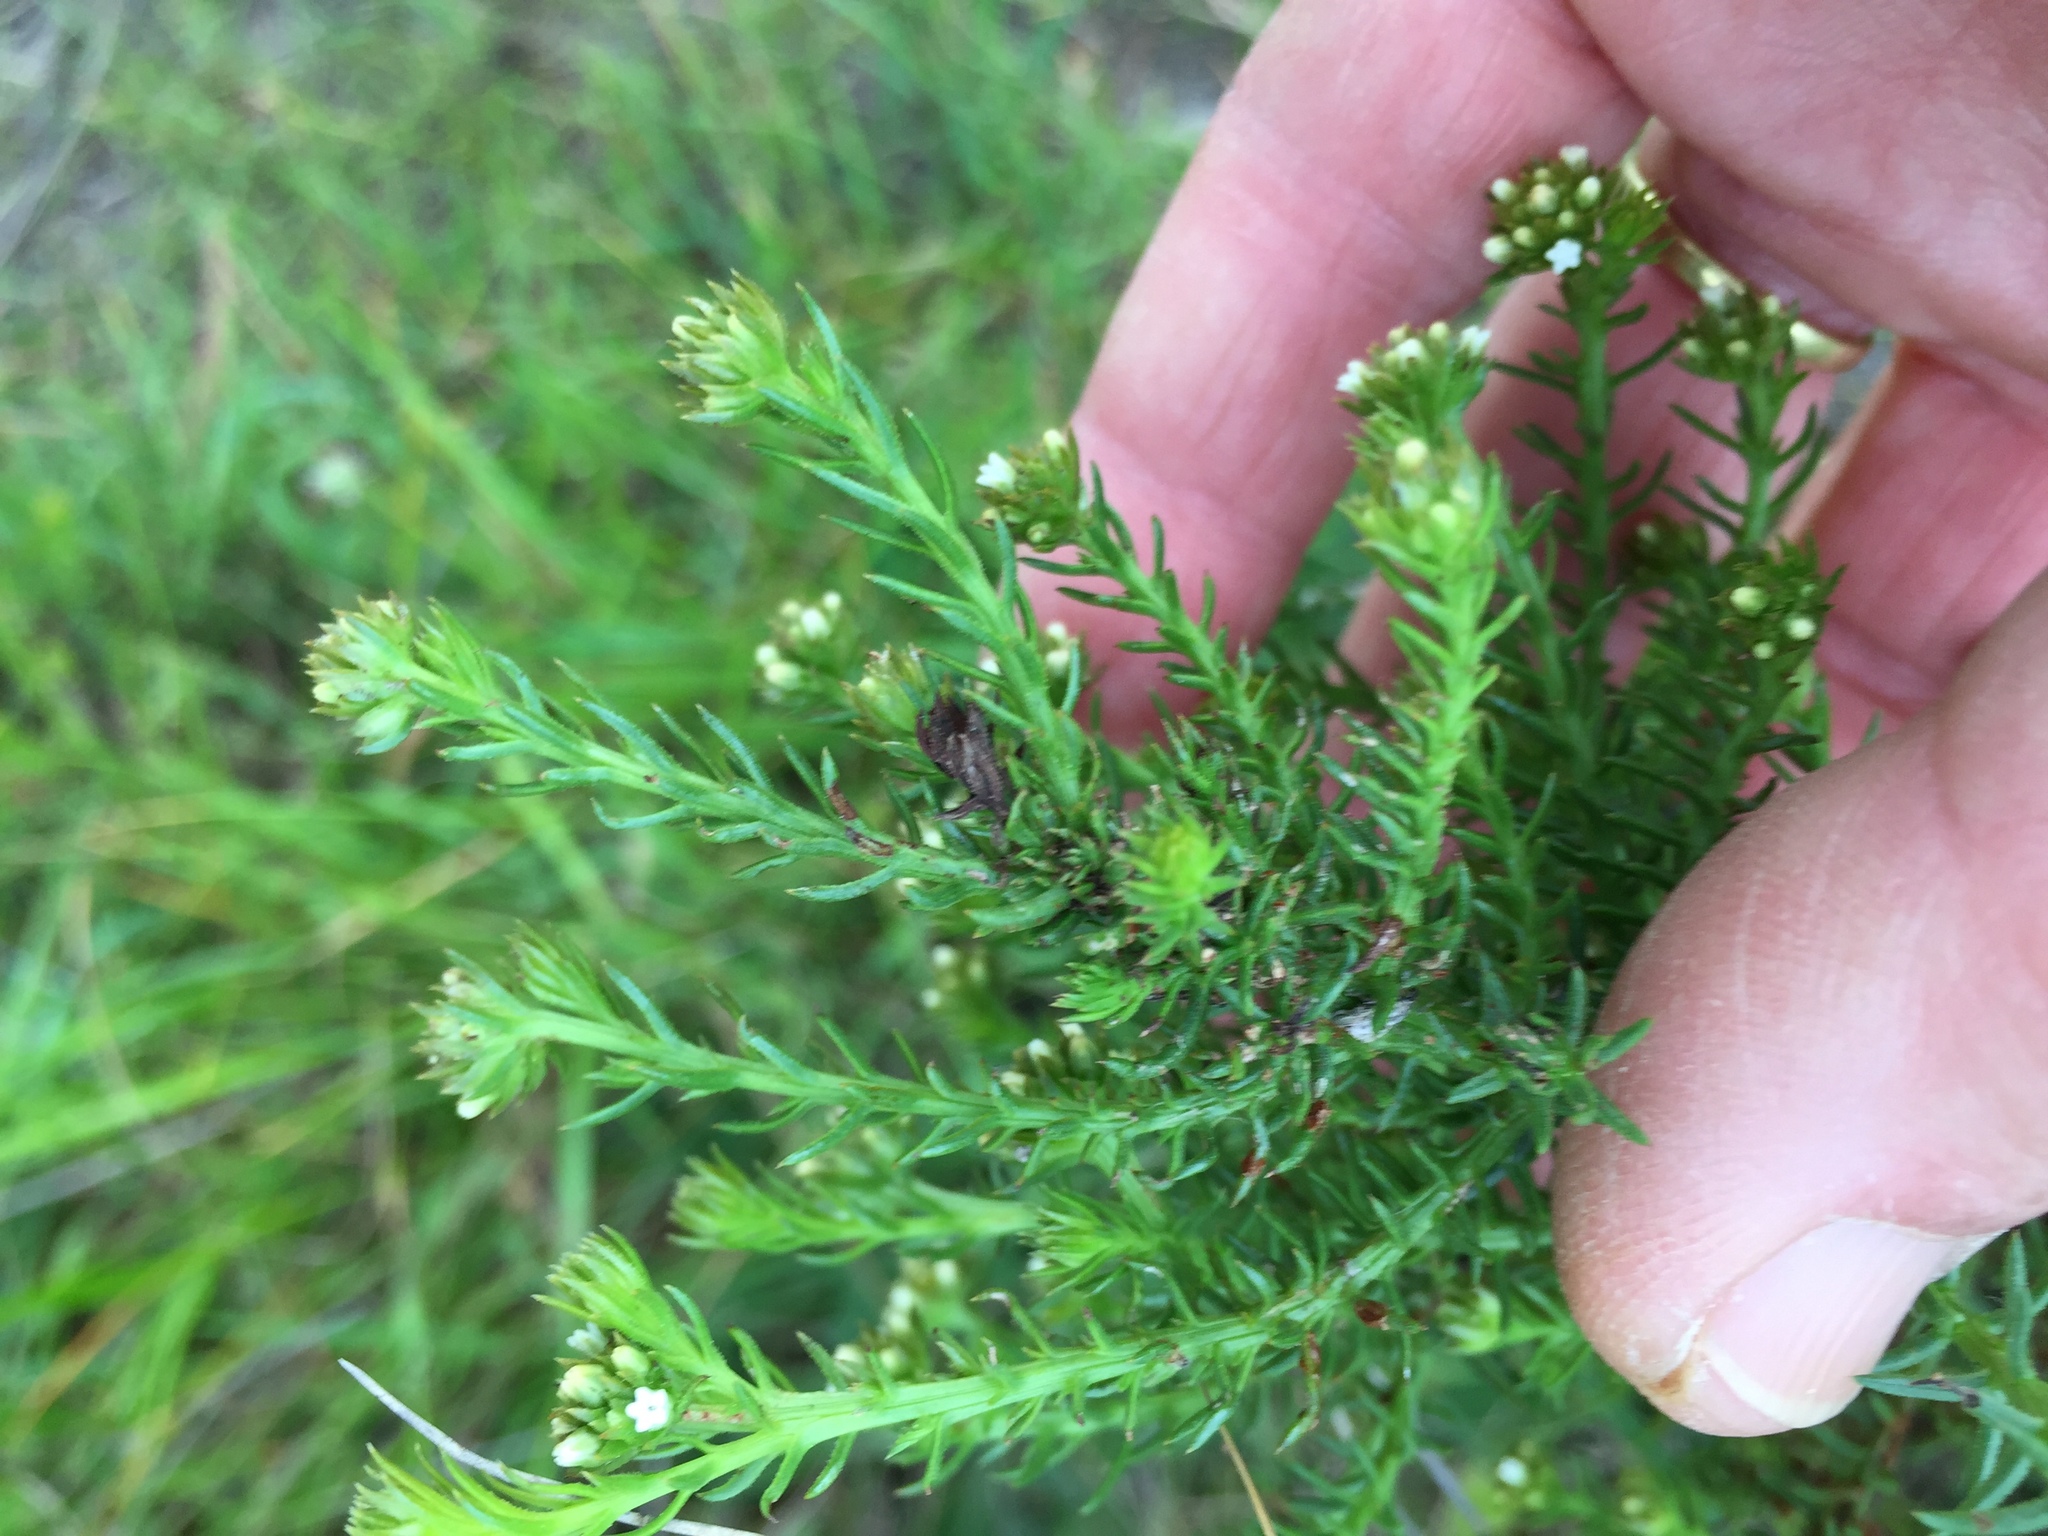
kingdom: Plantae
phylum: Tracheophyta
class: Magnoliopsida
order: Santalales
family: Thesiaceae
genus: Thesium
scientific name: Thesium scabrum
